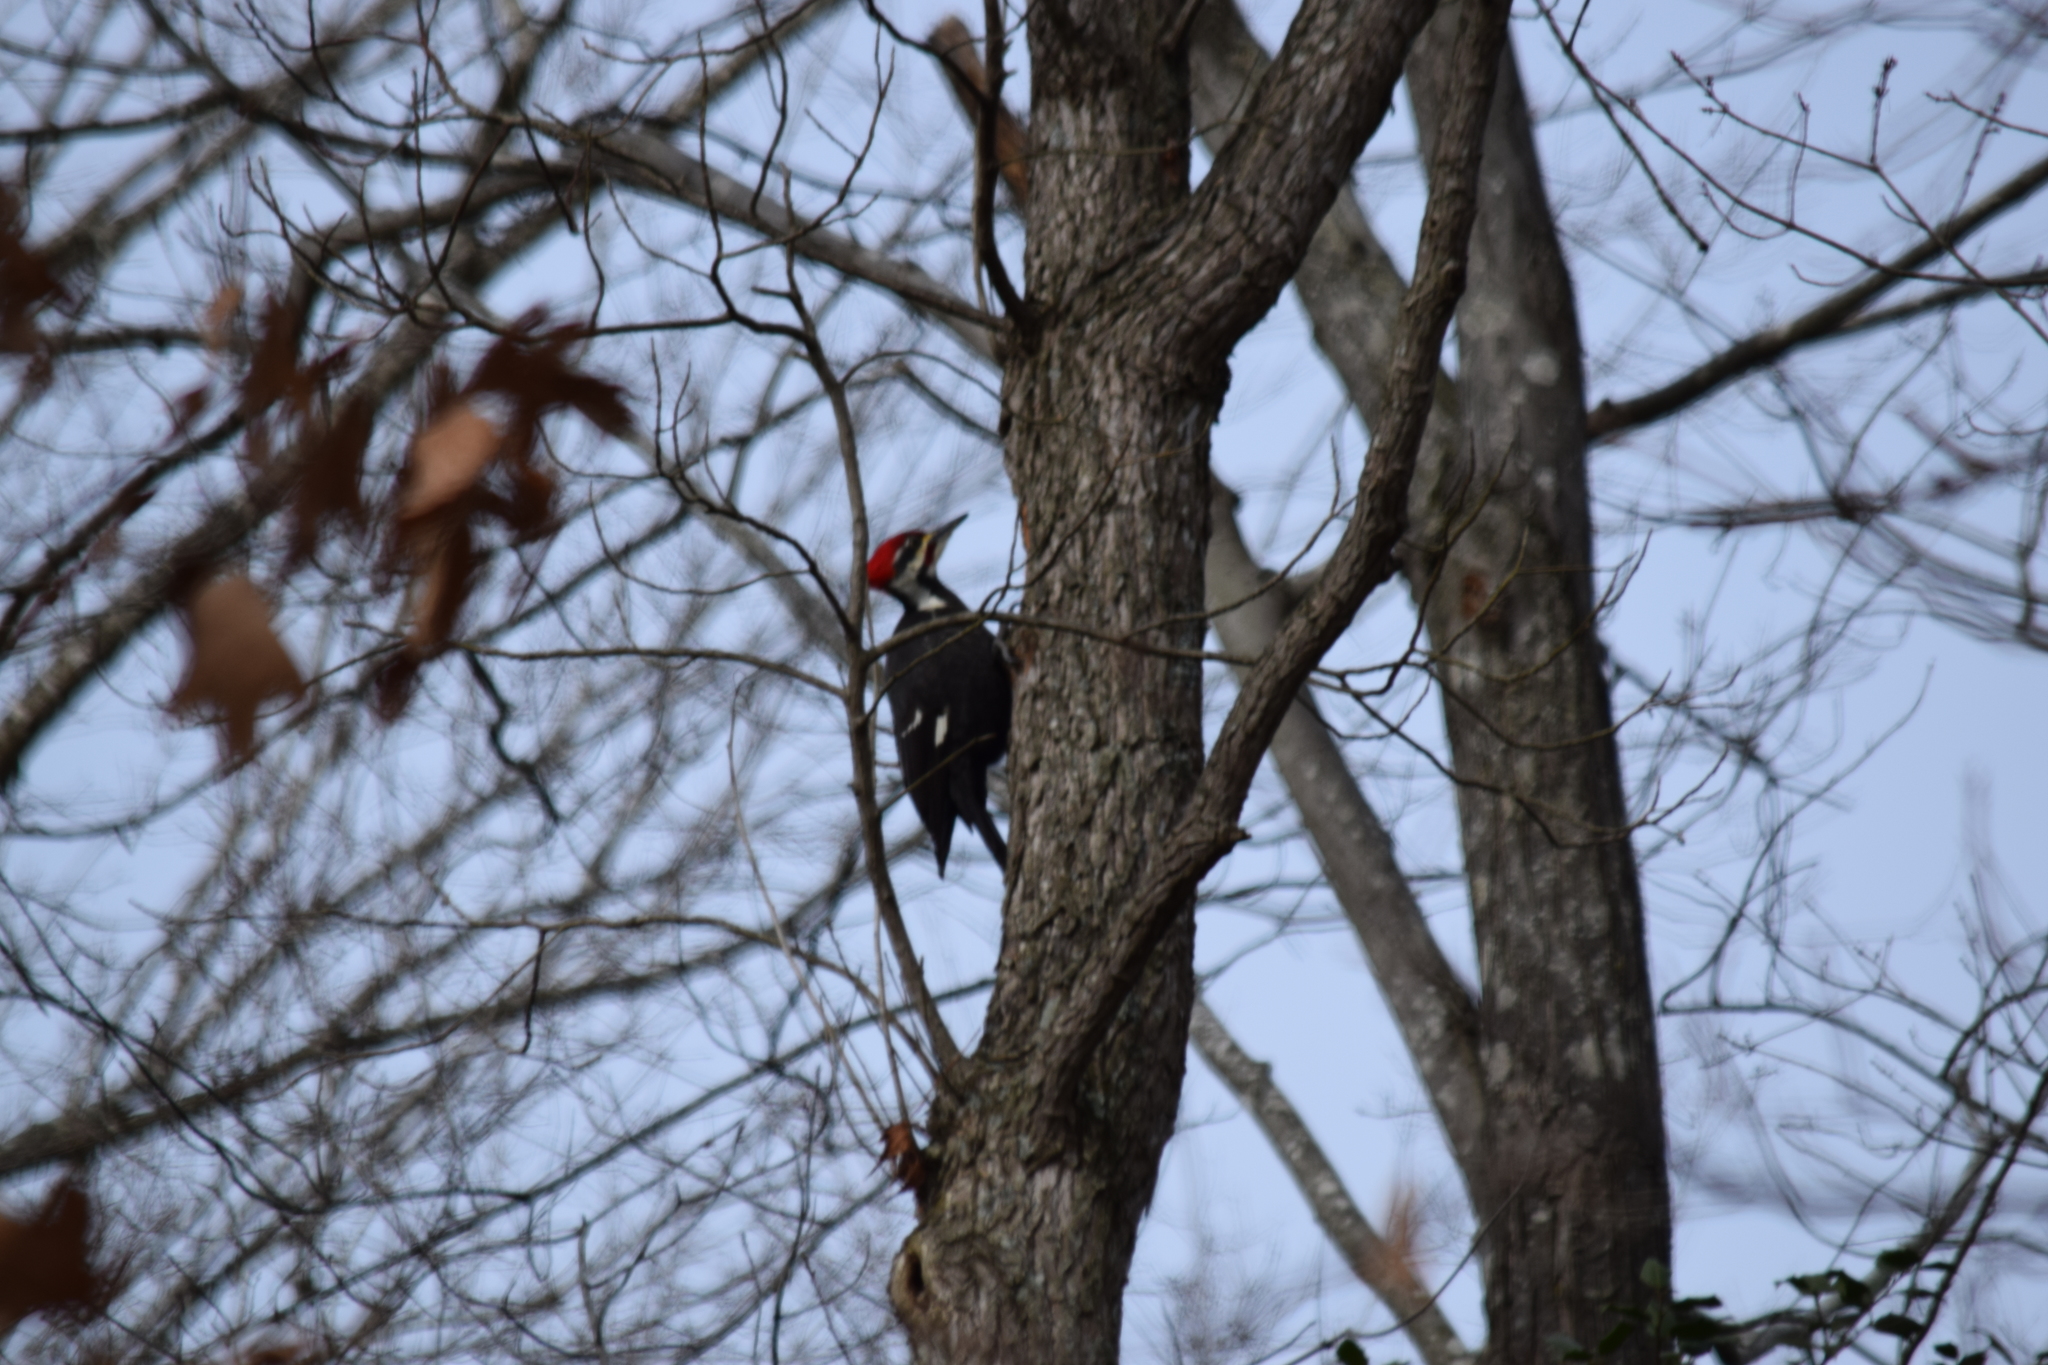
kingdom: Animalia
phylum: Chordata
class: Aves
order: Piciformes
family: Picidae
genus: Dryocopus
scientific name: Dryocopus pileatus
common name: Pileated woodpecker
